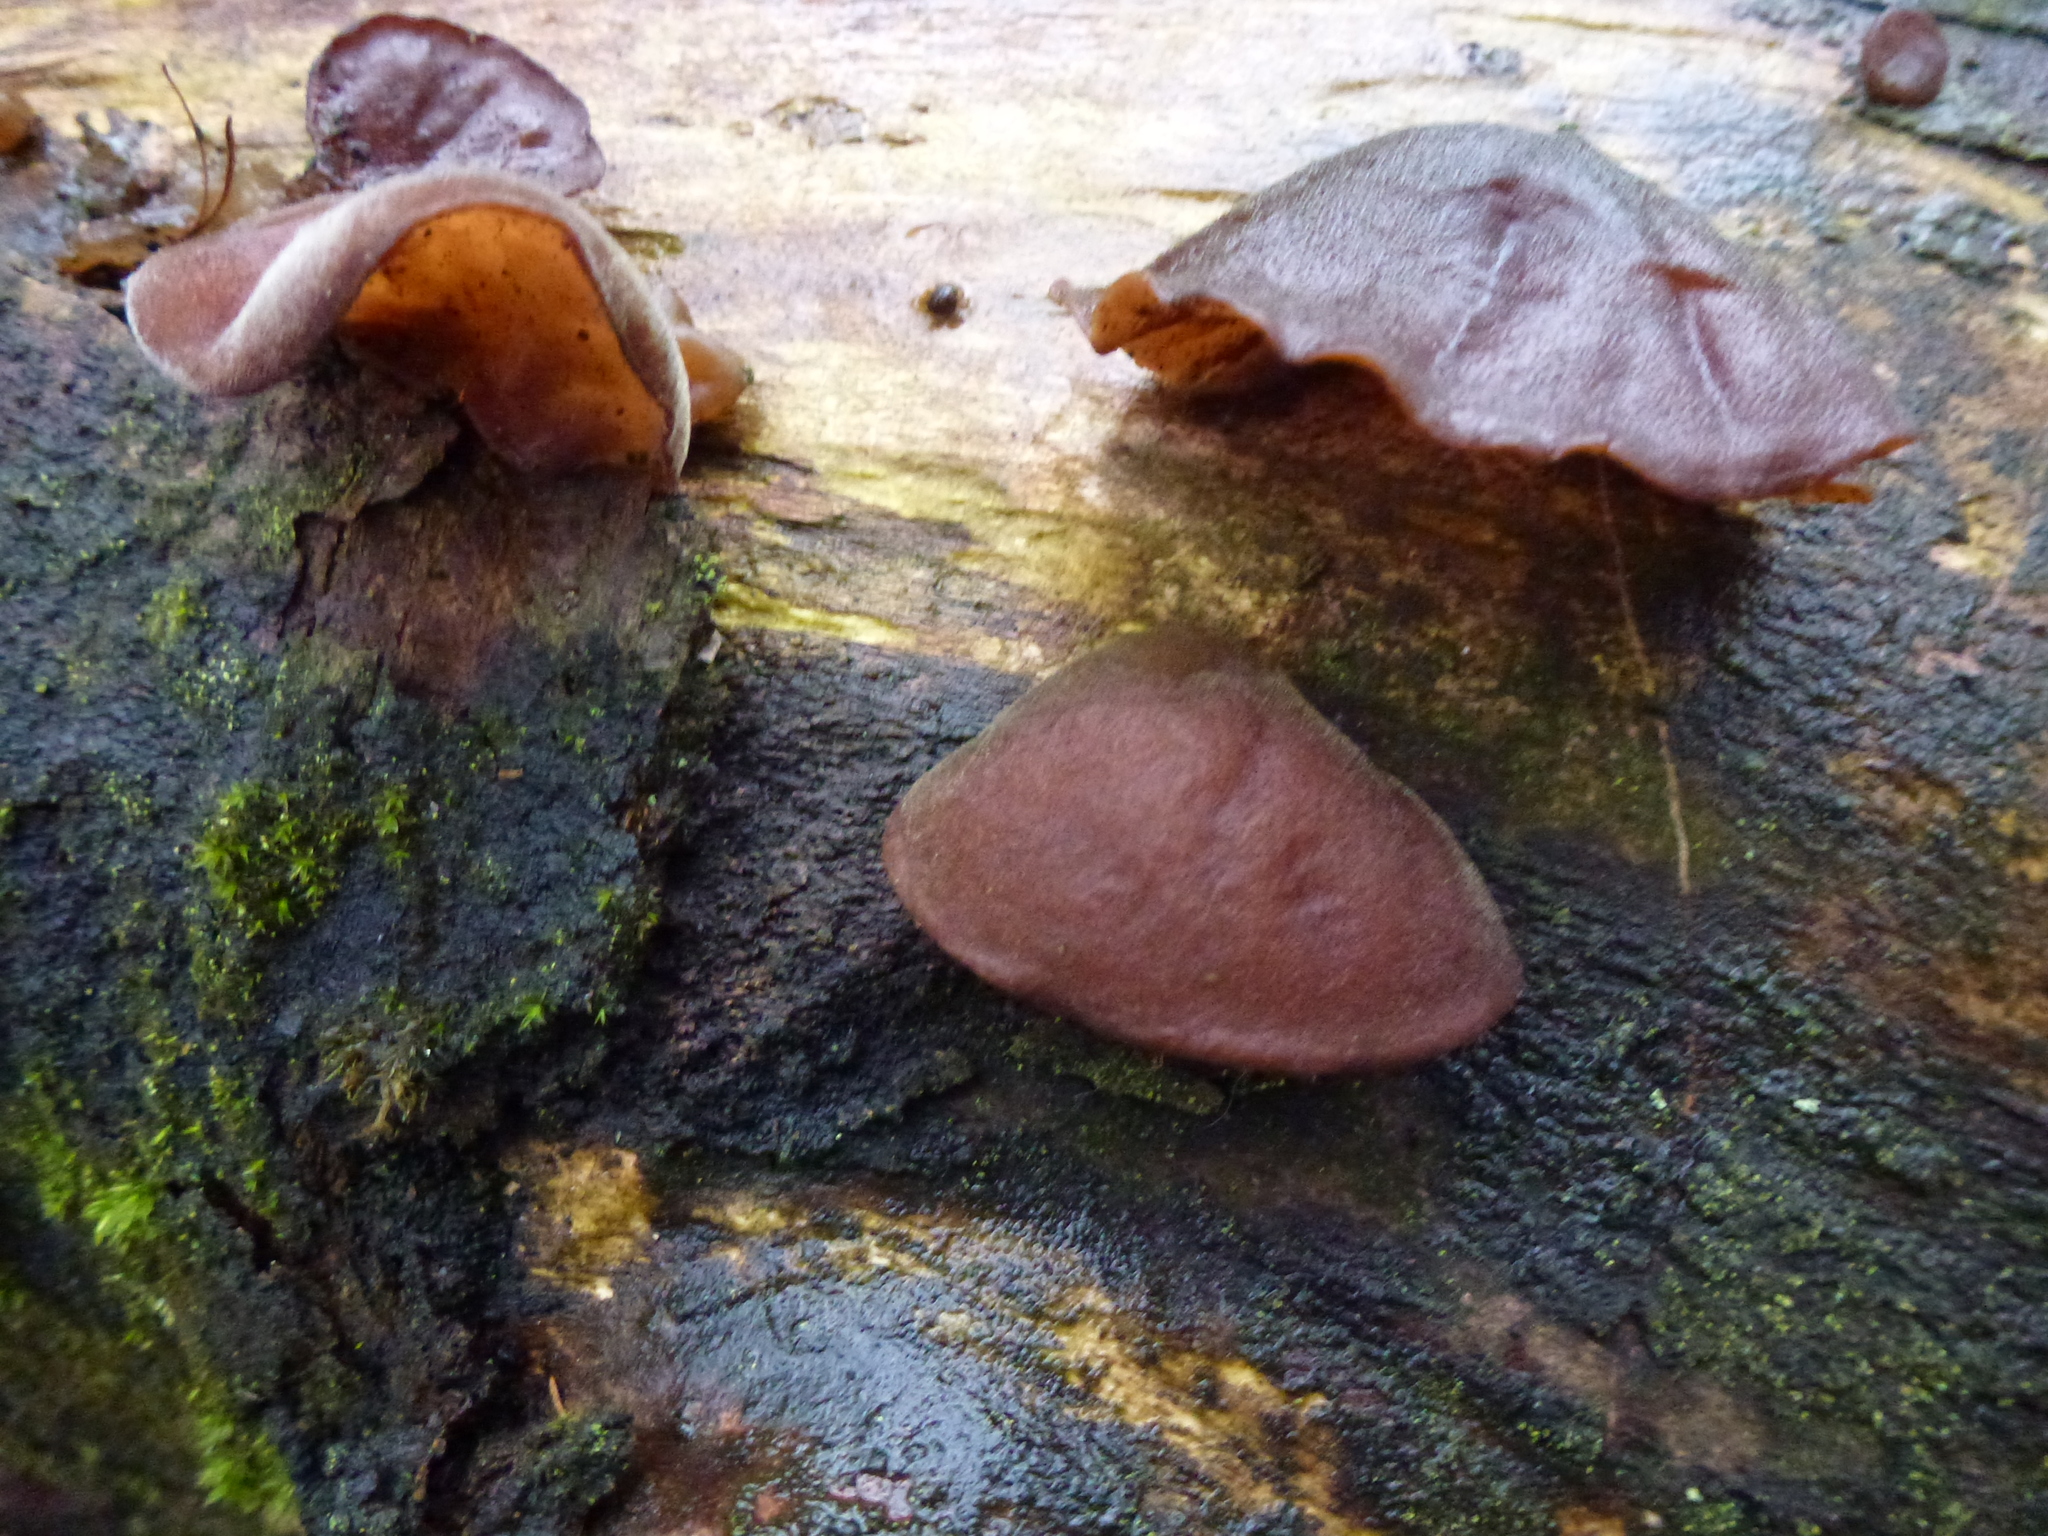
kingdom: Fungi
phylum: Basidiomycota
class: Agaricomycetes
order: Auriculariales
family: Auriculariaceae
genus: Auricularia
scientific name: Auricularia auricula-judae
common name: Jelly ear
